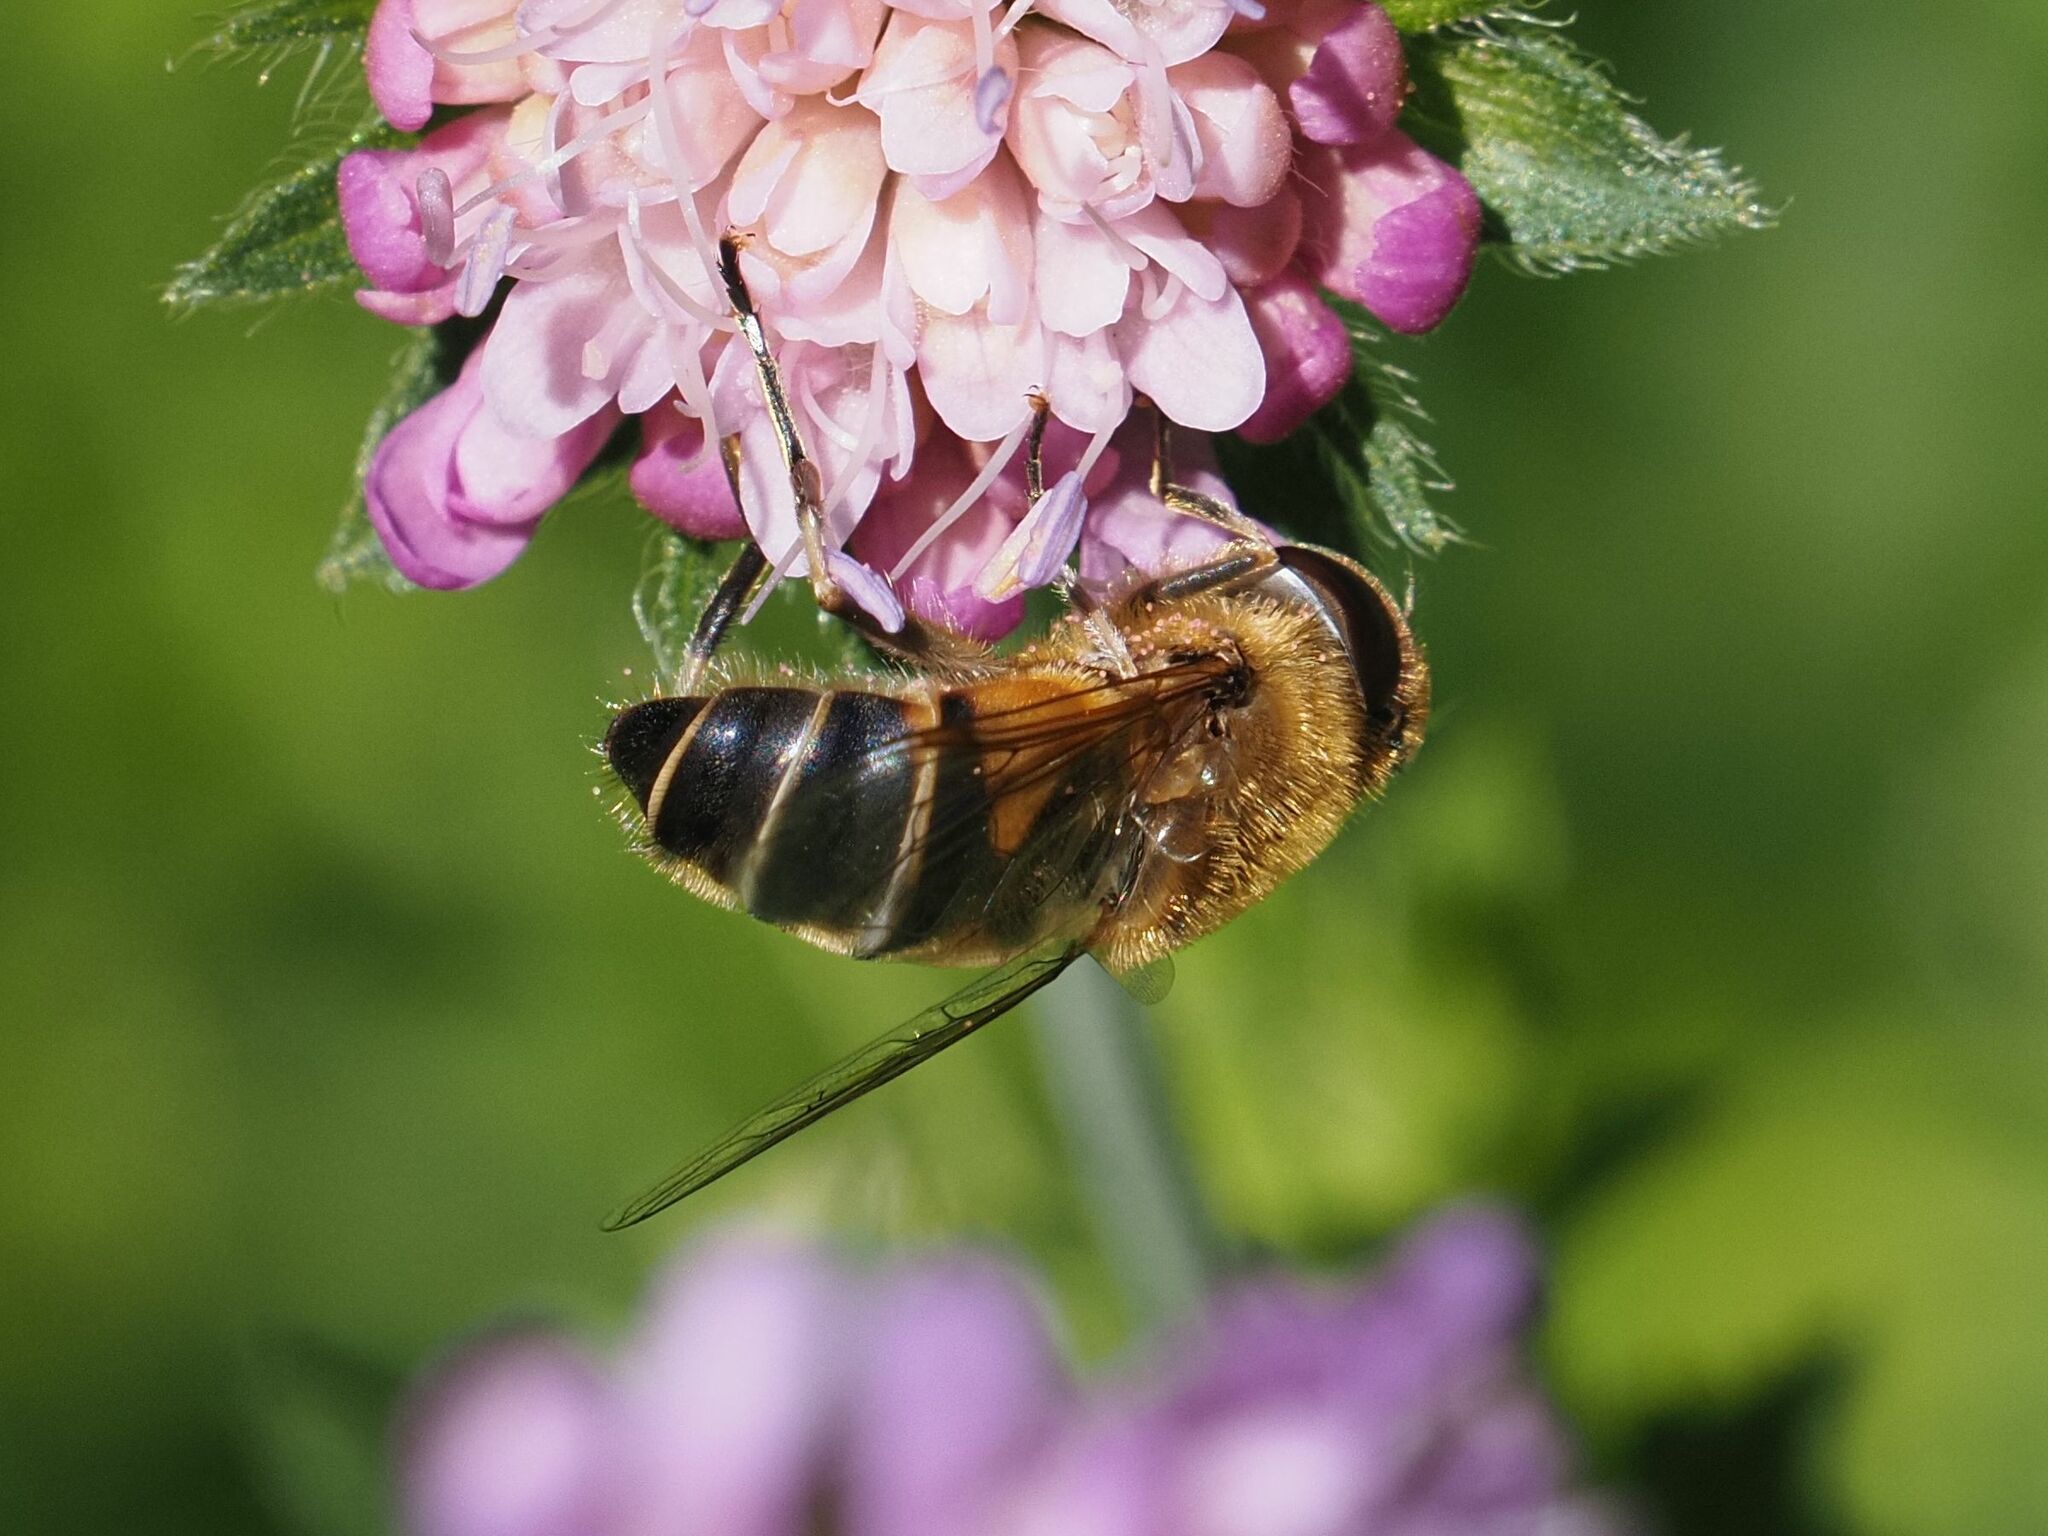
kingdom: Animalia
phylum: Arthropoda
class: Insecta
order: Diptera
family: Syrphidae
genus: Eristalis
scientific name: Eristalis pertinax
